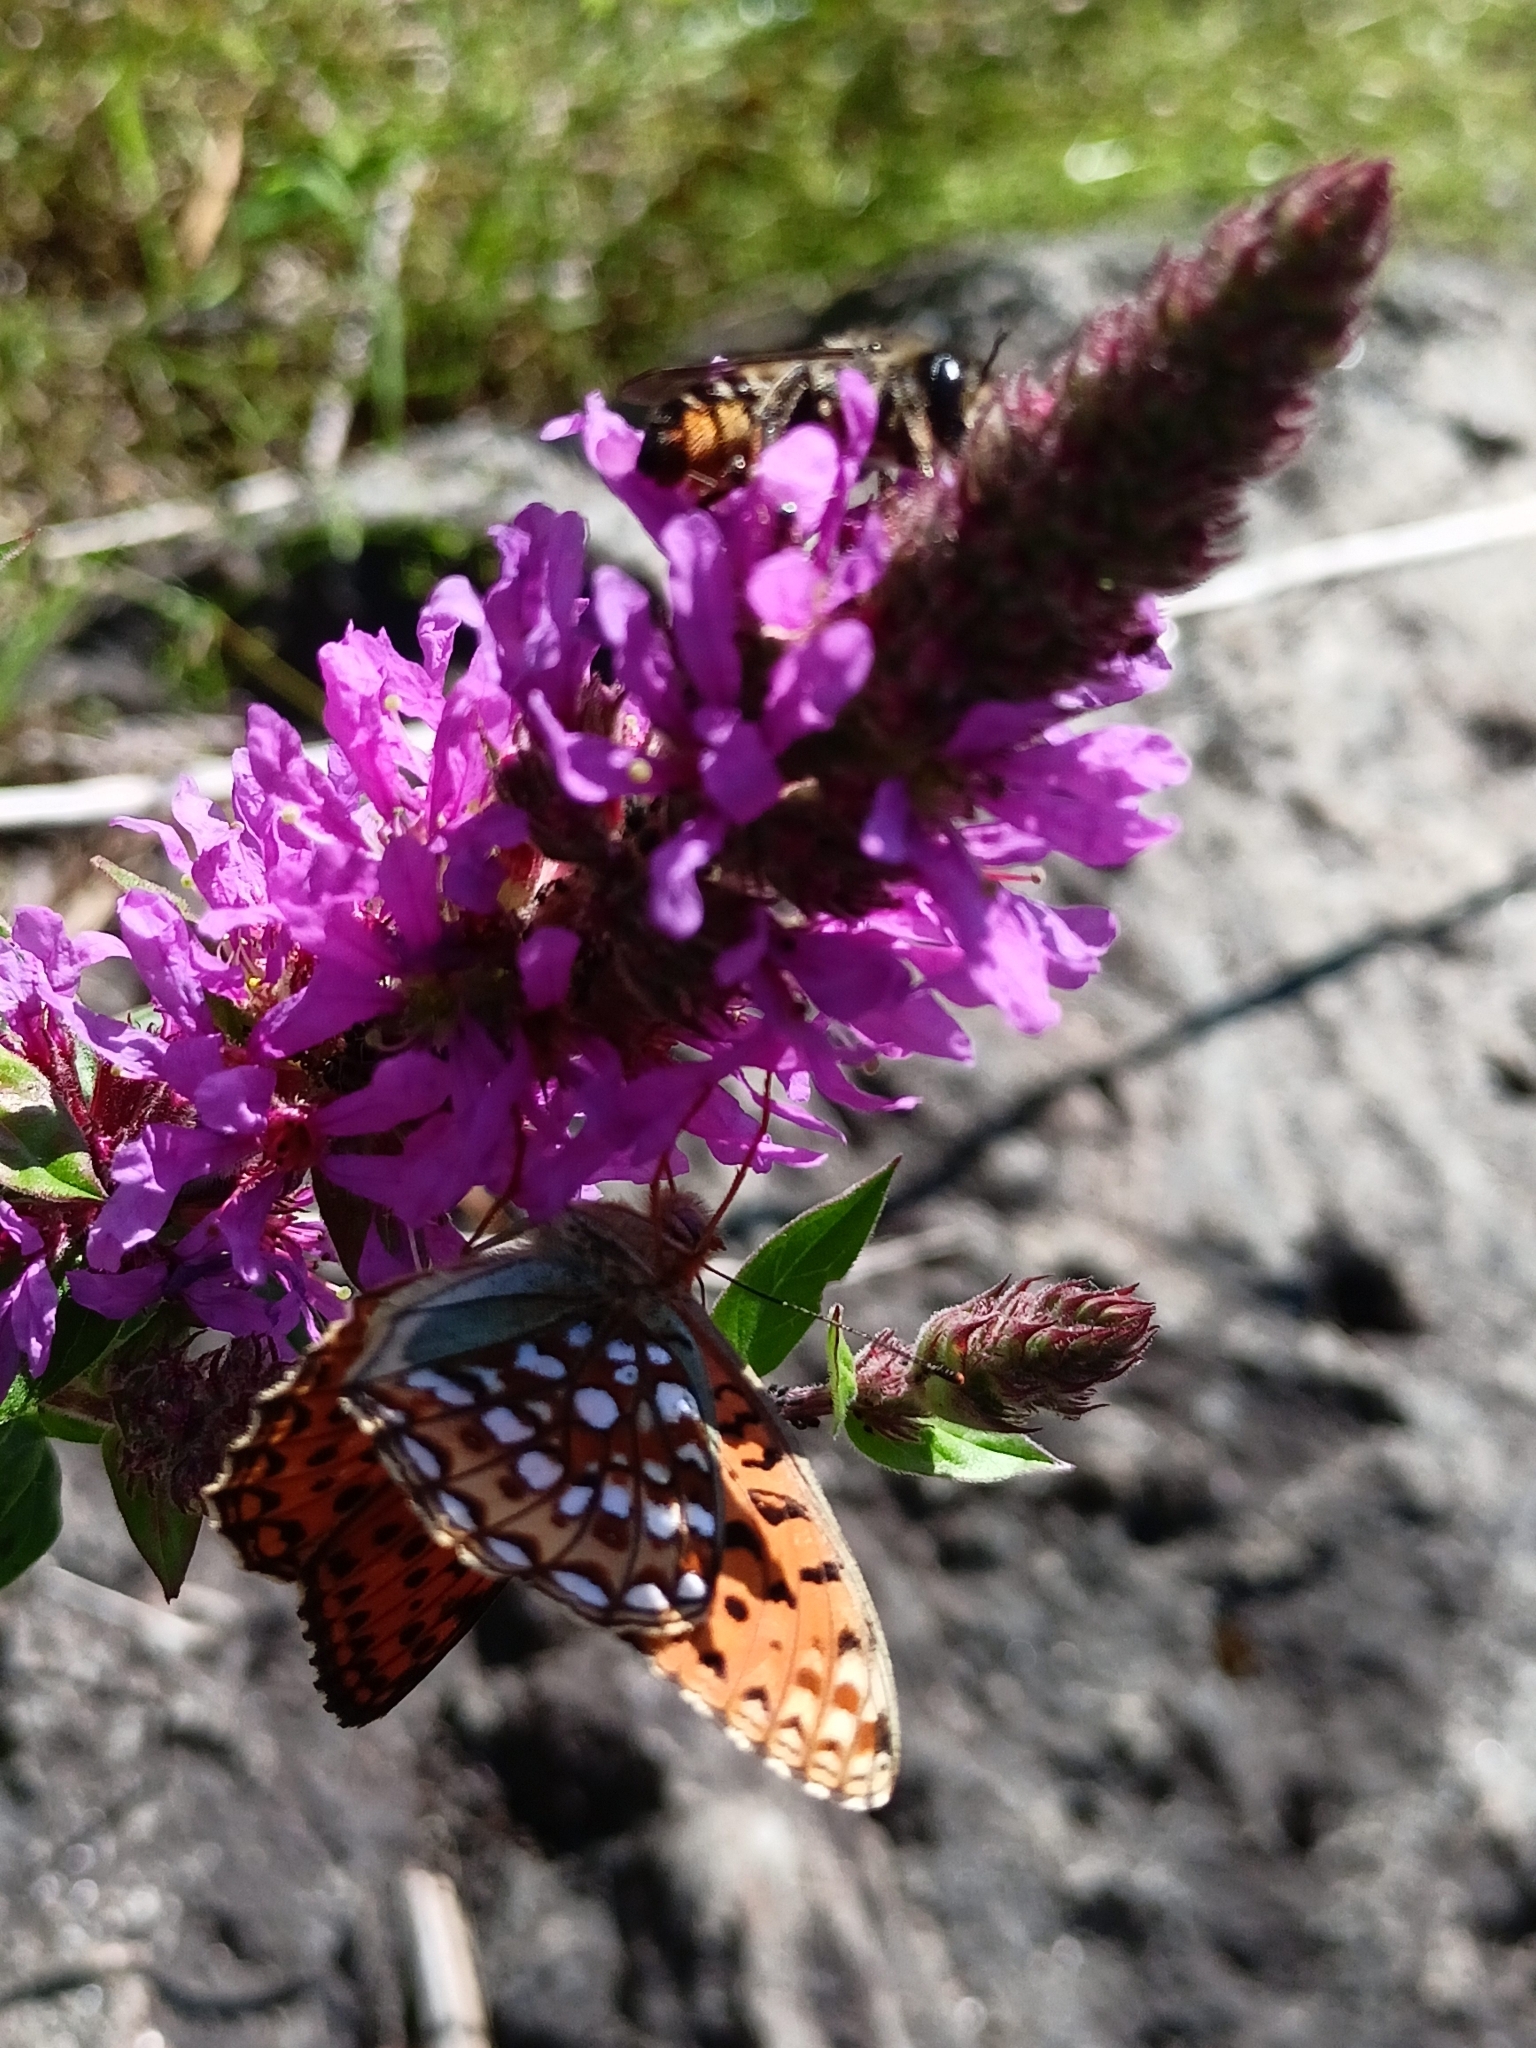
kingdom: Animalia
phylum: Arthropoda
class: Insecta
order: Lepidoptera
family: Nymphalidae
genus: Fabriciana
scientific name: Fabriciana niobe
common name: Niobe fritillary
